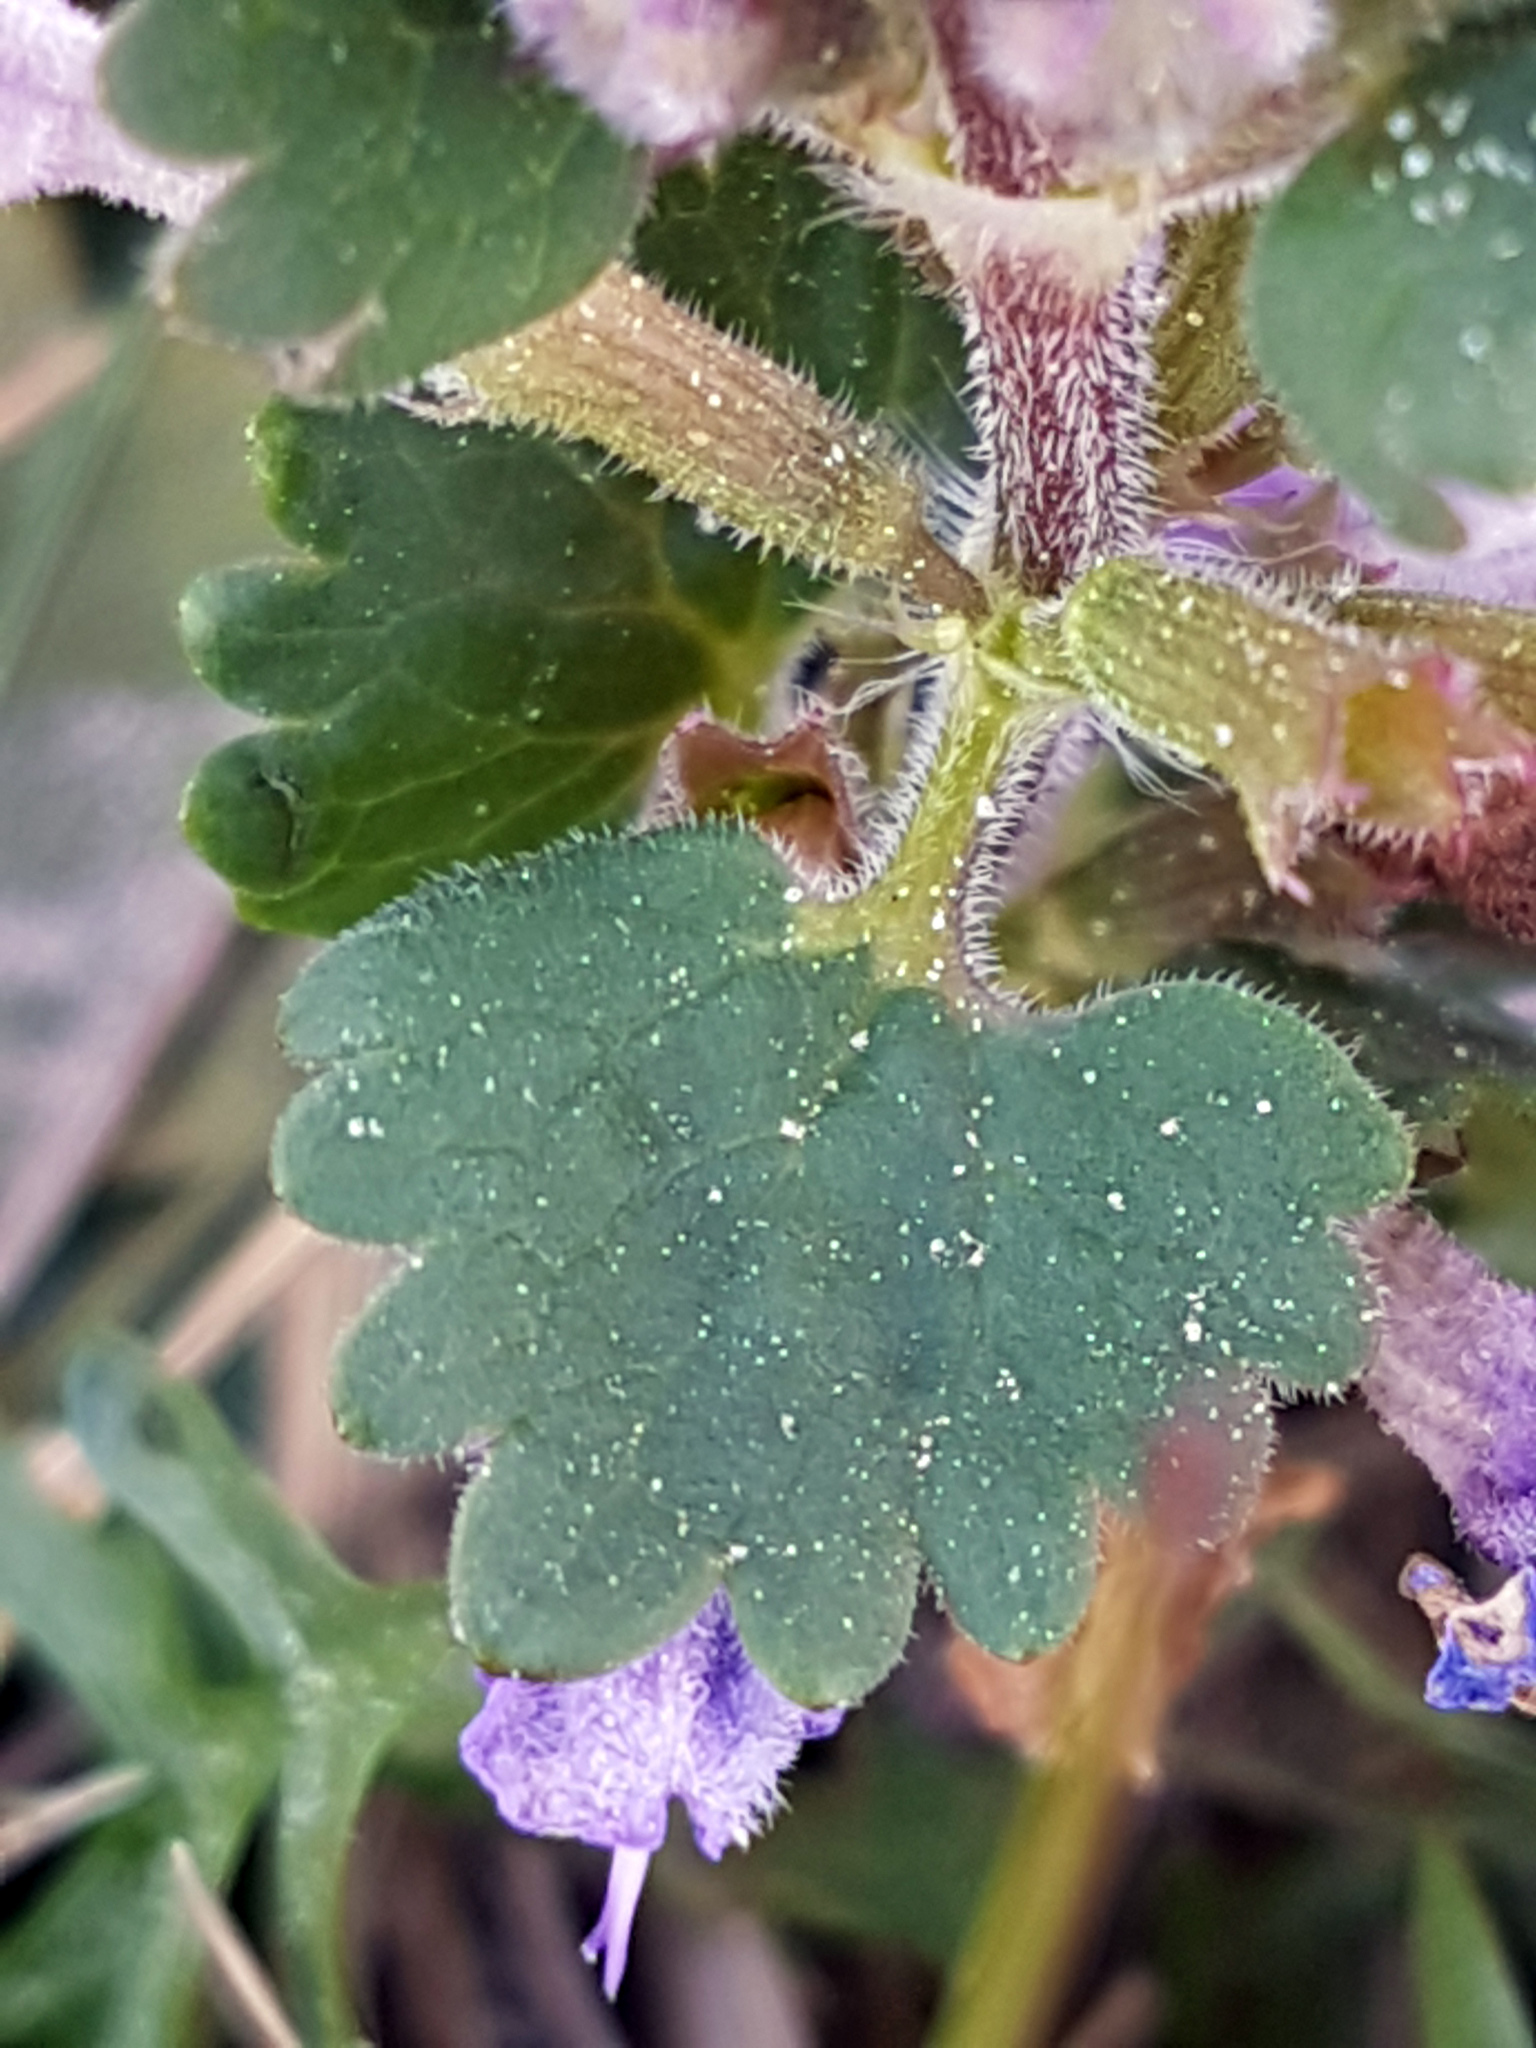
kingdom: Plantae
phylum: Tracheophyta
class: Magnoliopsida
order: Lamiales
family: Lamiaceae
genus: Glechoma
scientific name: Glechoma hederacea
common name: Ground ivy
